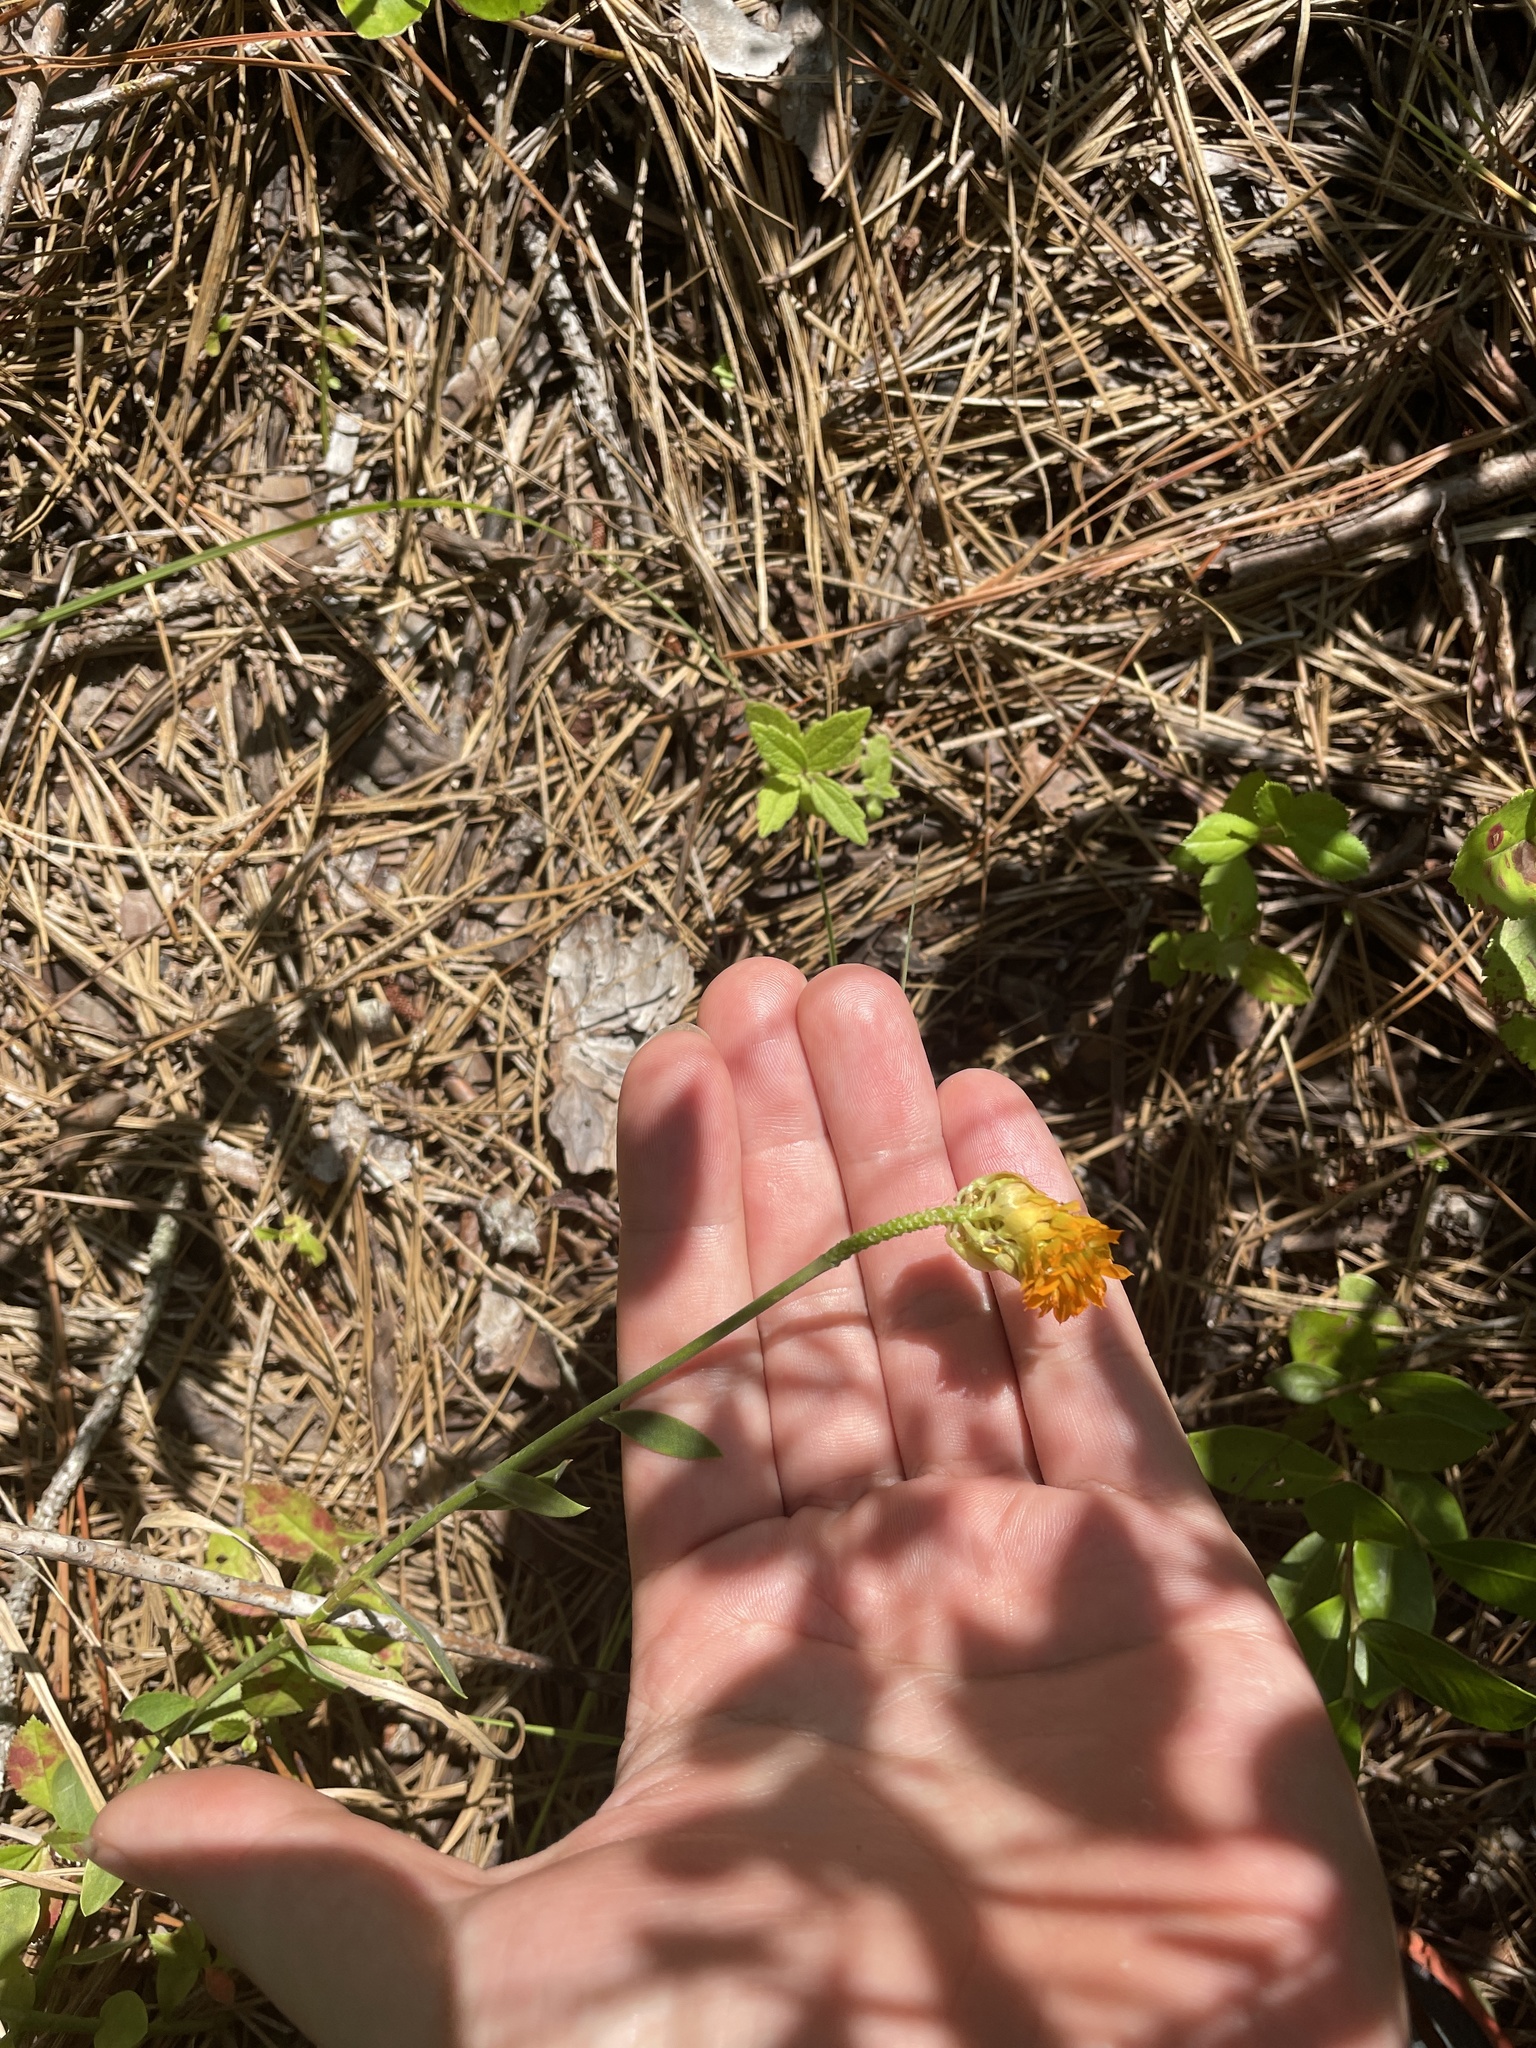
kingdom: Plantae
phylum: Tracheophyta
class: Magnoliopsida
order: Fabales
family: Polygalaceae
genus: Polygala
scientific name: Polygala lutea
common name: Orange milkwort
